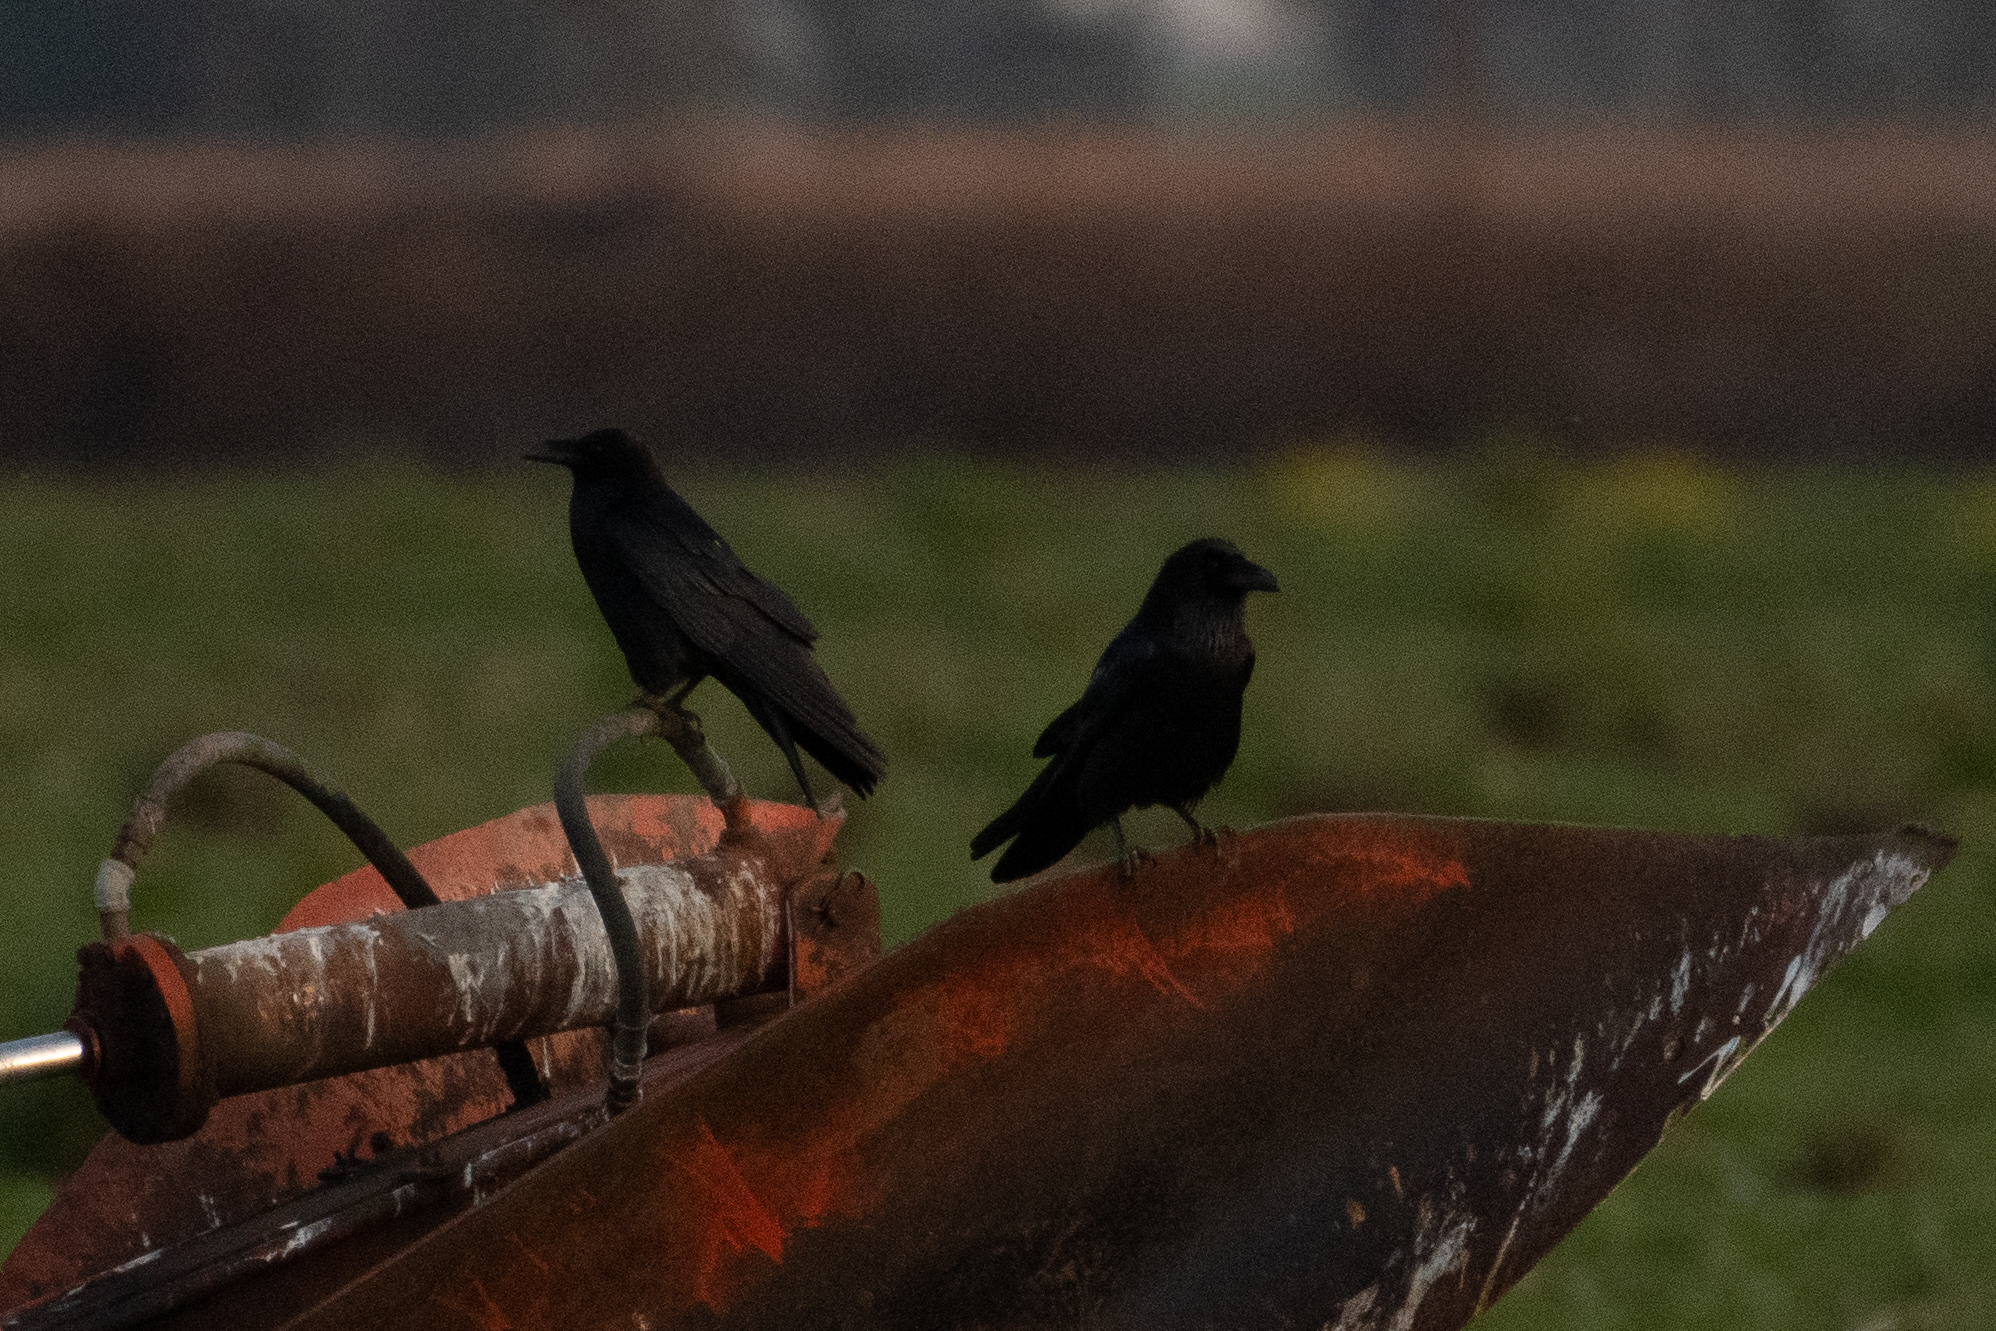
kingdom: Animalia
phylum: Chordata
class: Aves
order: Passeriformes
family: Corvidae
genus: Corvus
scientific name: Corvus corax
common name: Common raven
